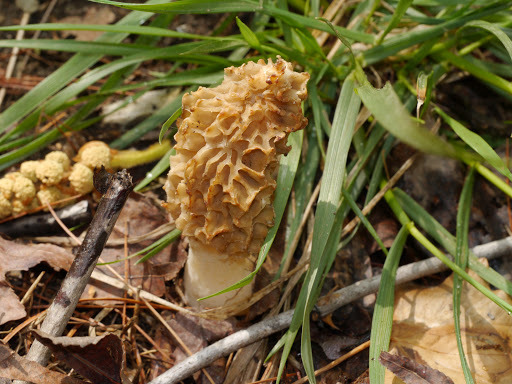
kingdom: Fungi
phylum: Ascomycota
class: Pezizomycetes
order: Pezizales
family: Morchellaceae
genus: Morchella
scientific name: Morchella americana
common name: White morel
